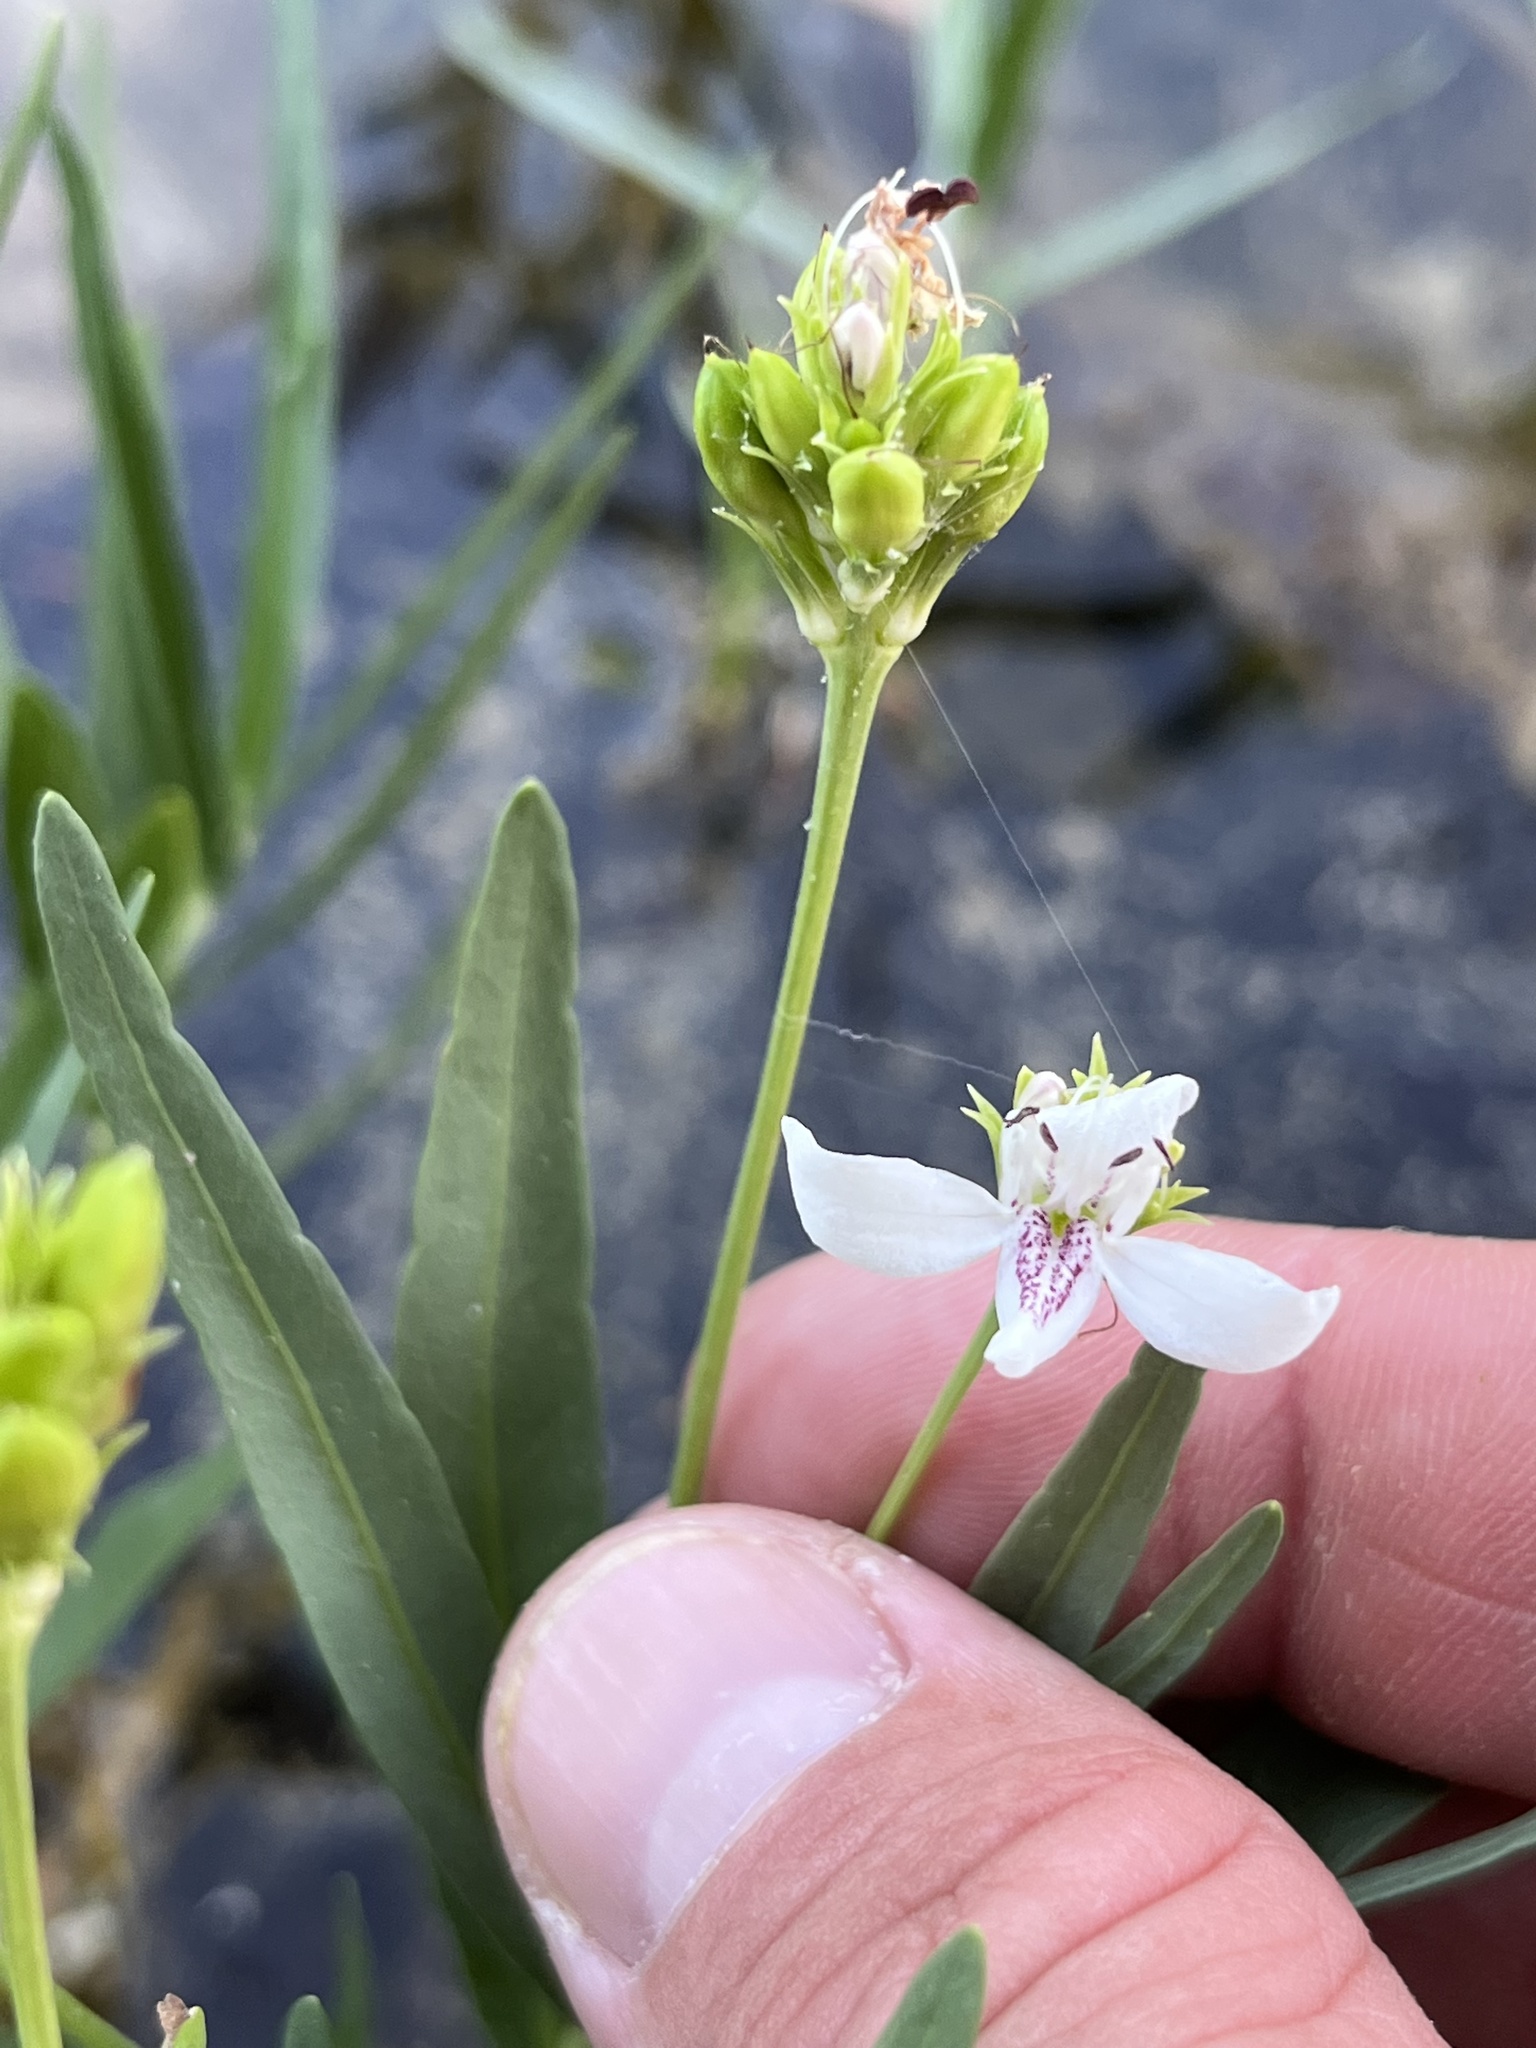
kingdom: Plantae
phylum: Tracheophyta
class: Magnoliopsida
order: Lamiales
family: Acanthaceae
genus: Dianthera
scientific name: Dianthera americana
